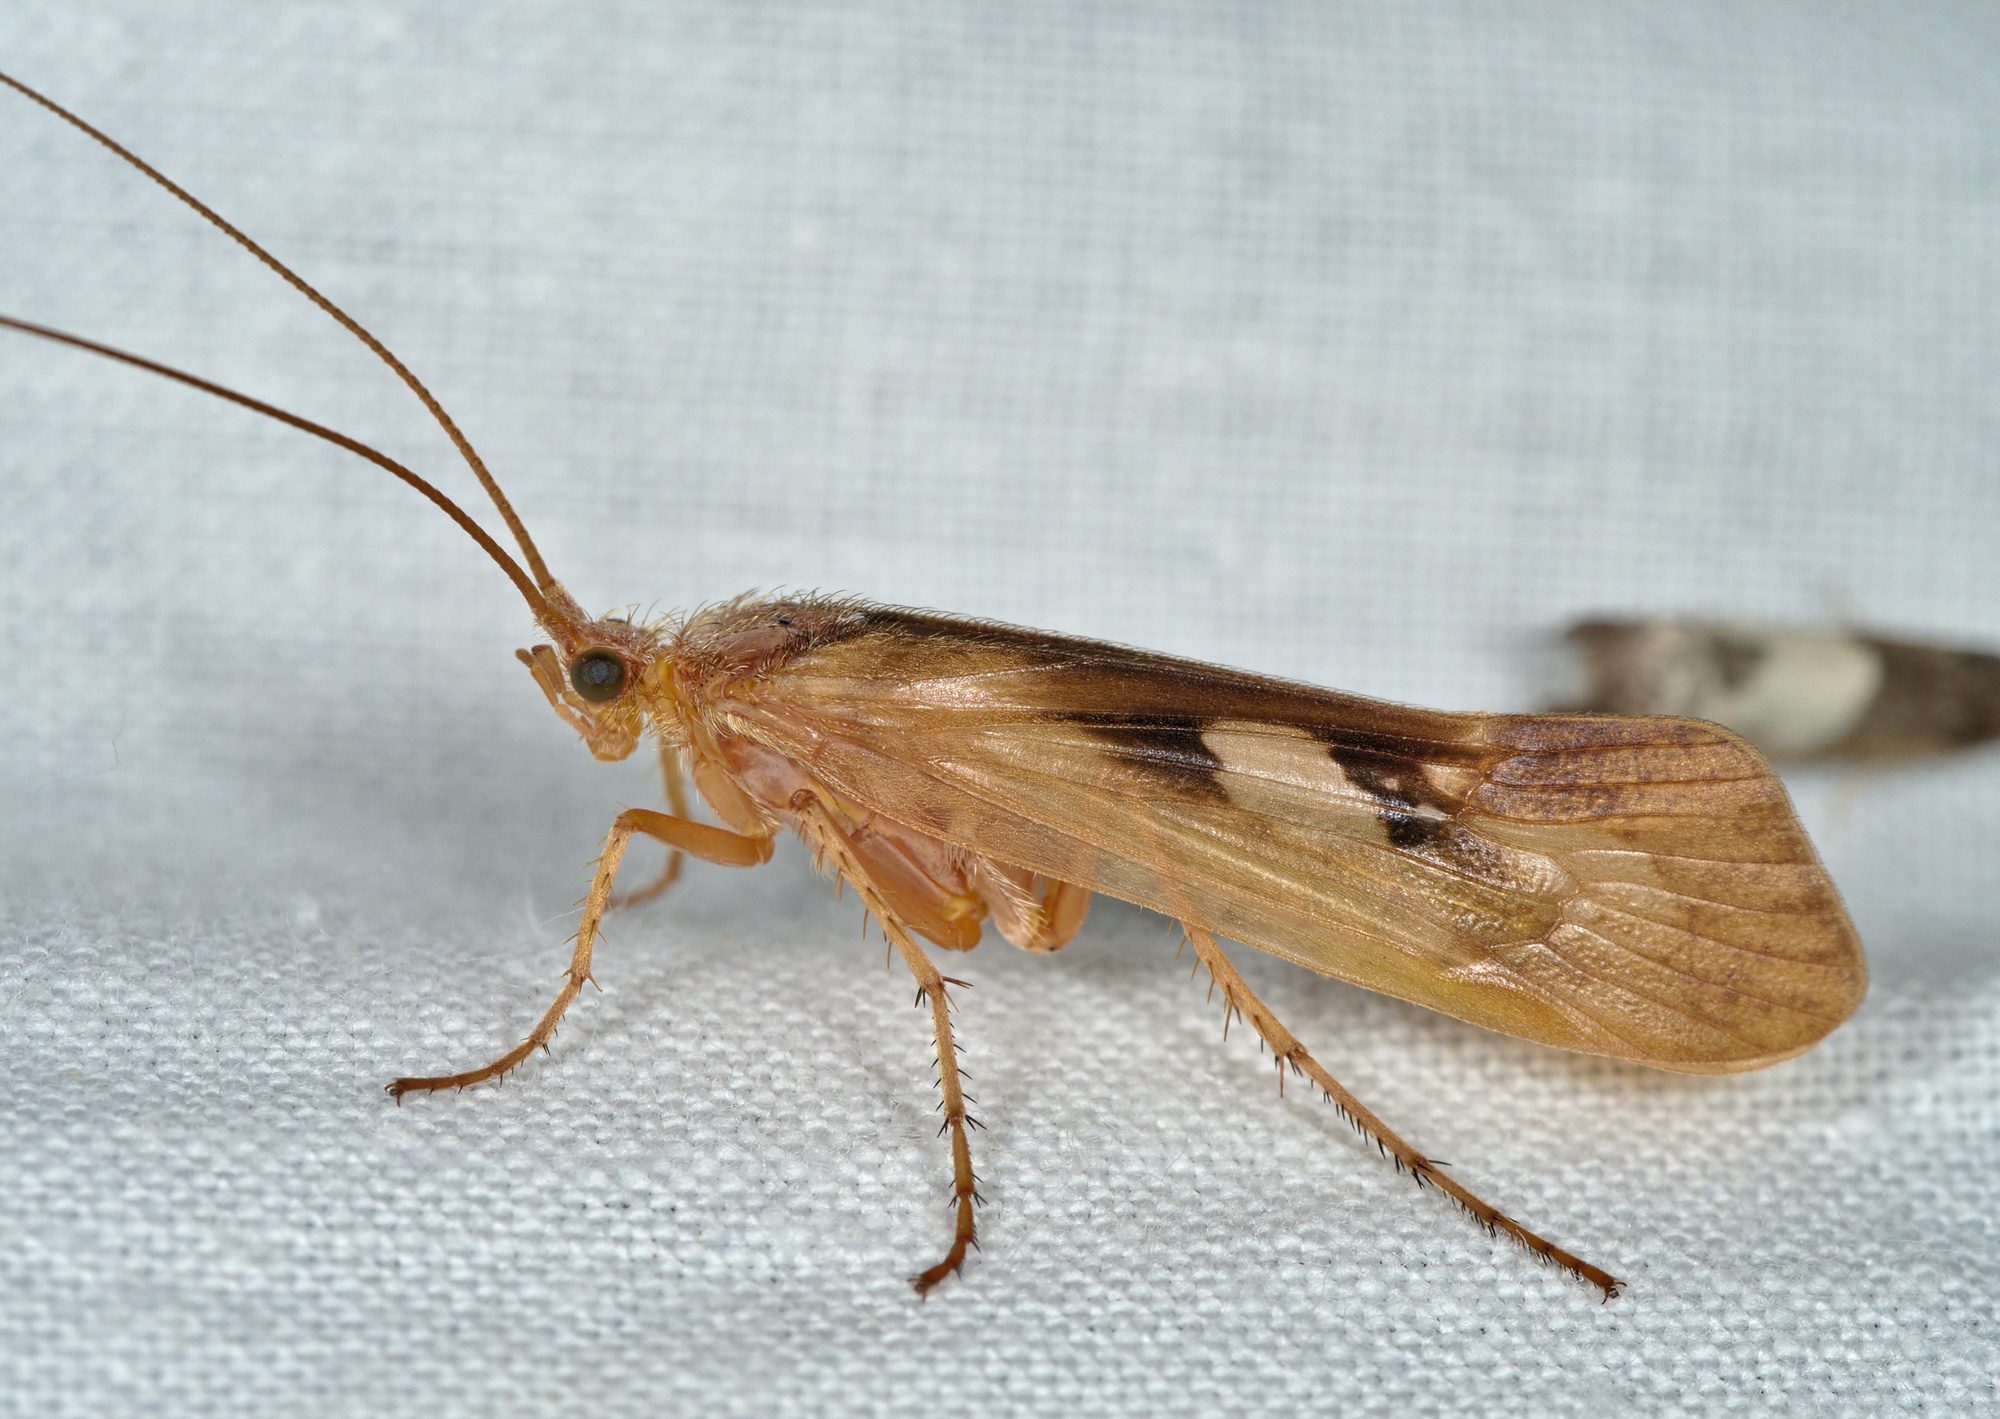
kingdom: Animalia
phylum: Arthropoda
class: Insecta
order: Trichoptera
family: Limnephilidae
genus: Limnephilus
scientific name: Limnephilus rhombicus
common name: Diamond northern caddisfly
